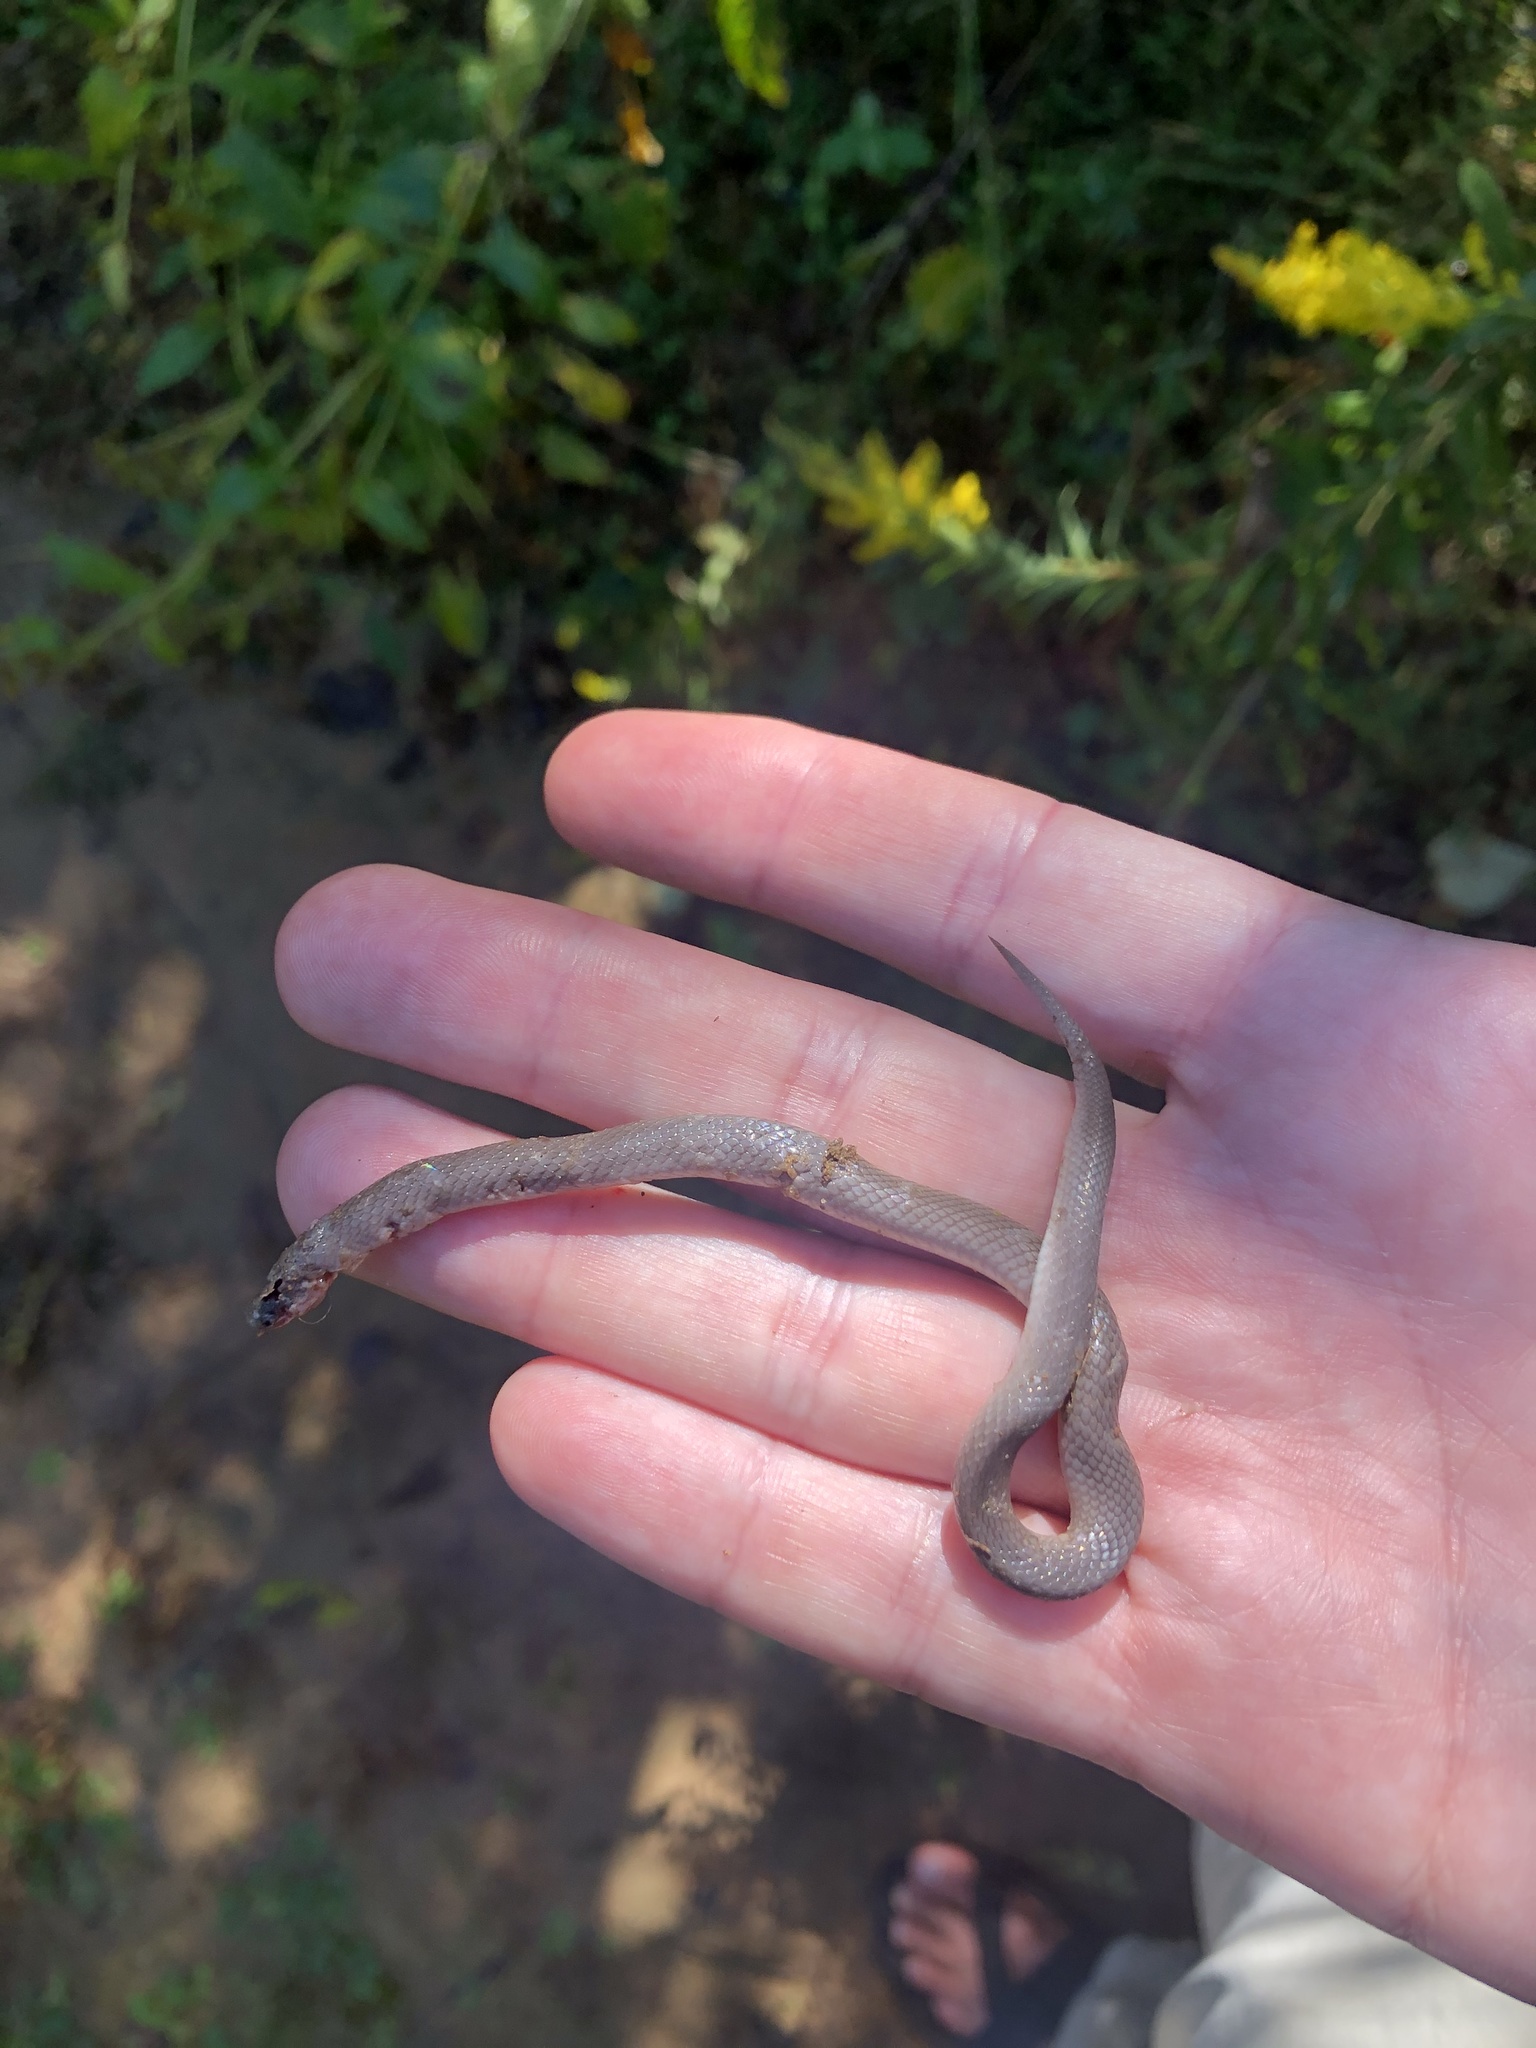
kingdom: Animalia
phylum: Chordata
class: Squamata
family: Colubridae
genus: Carphophis
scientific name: Carphophis amoenus
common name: Eastern worm snake
